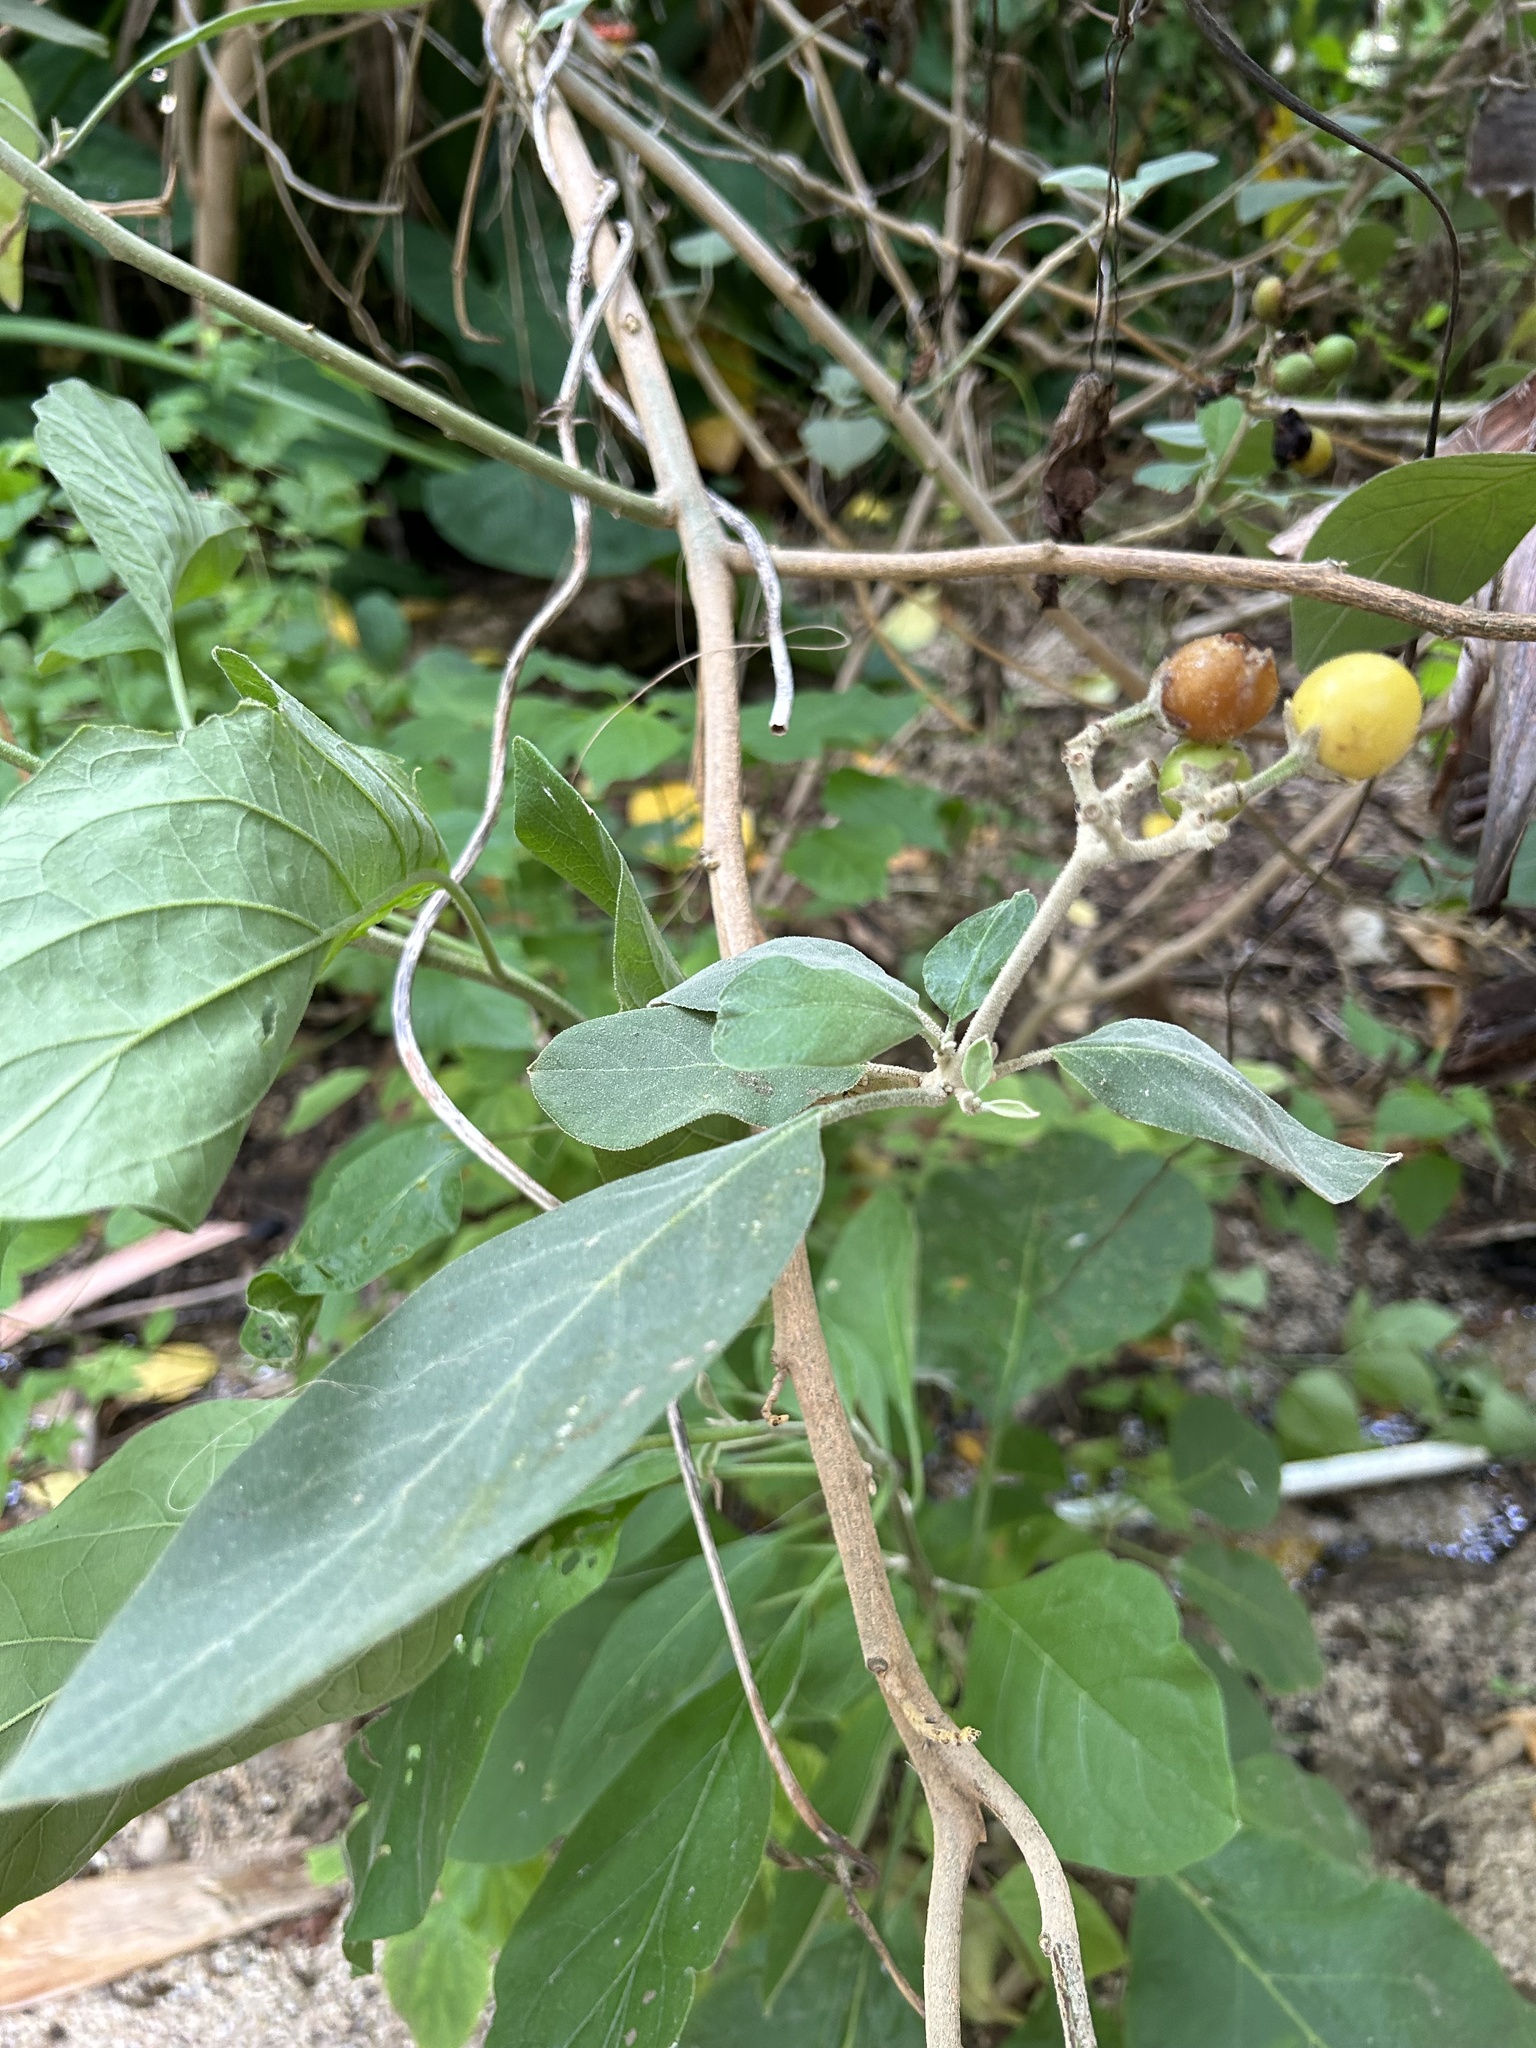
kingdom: Plantae
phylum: Tracheophyta
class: Magnoliopsida
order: Solanales
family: Solanaceae
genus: Solanum
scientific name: Solanum erianthum
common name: Tobacco-tree
